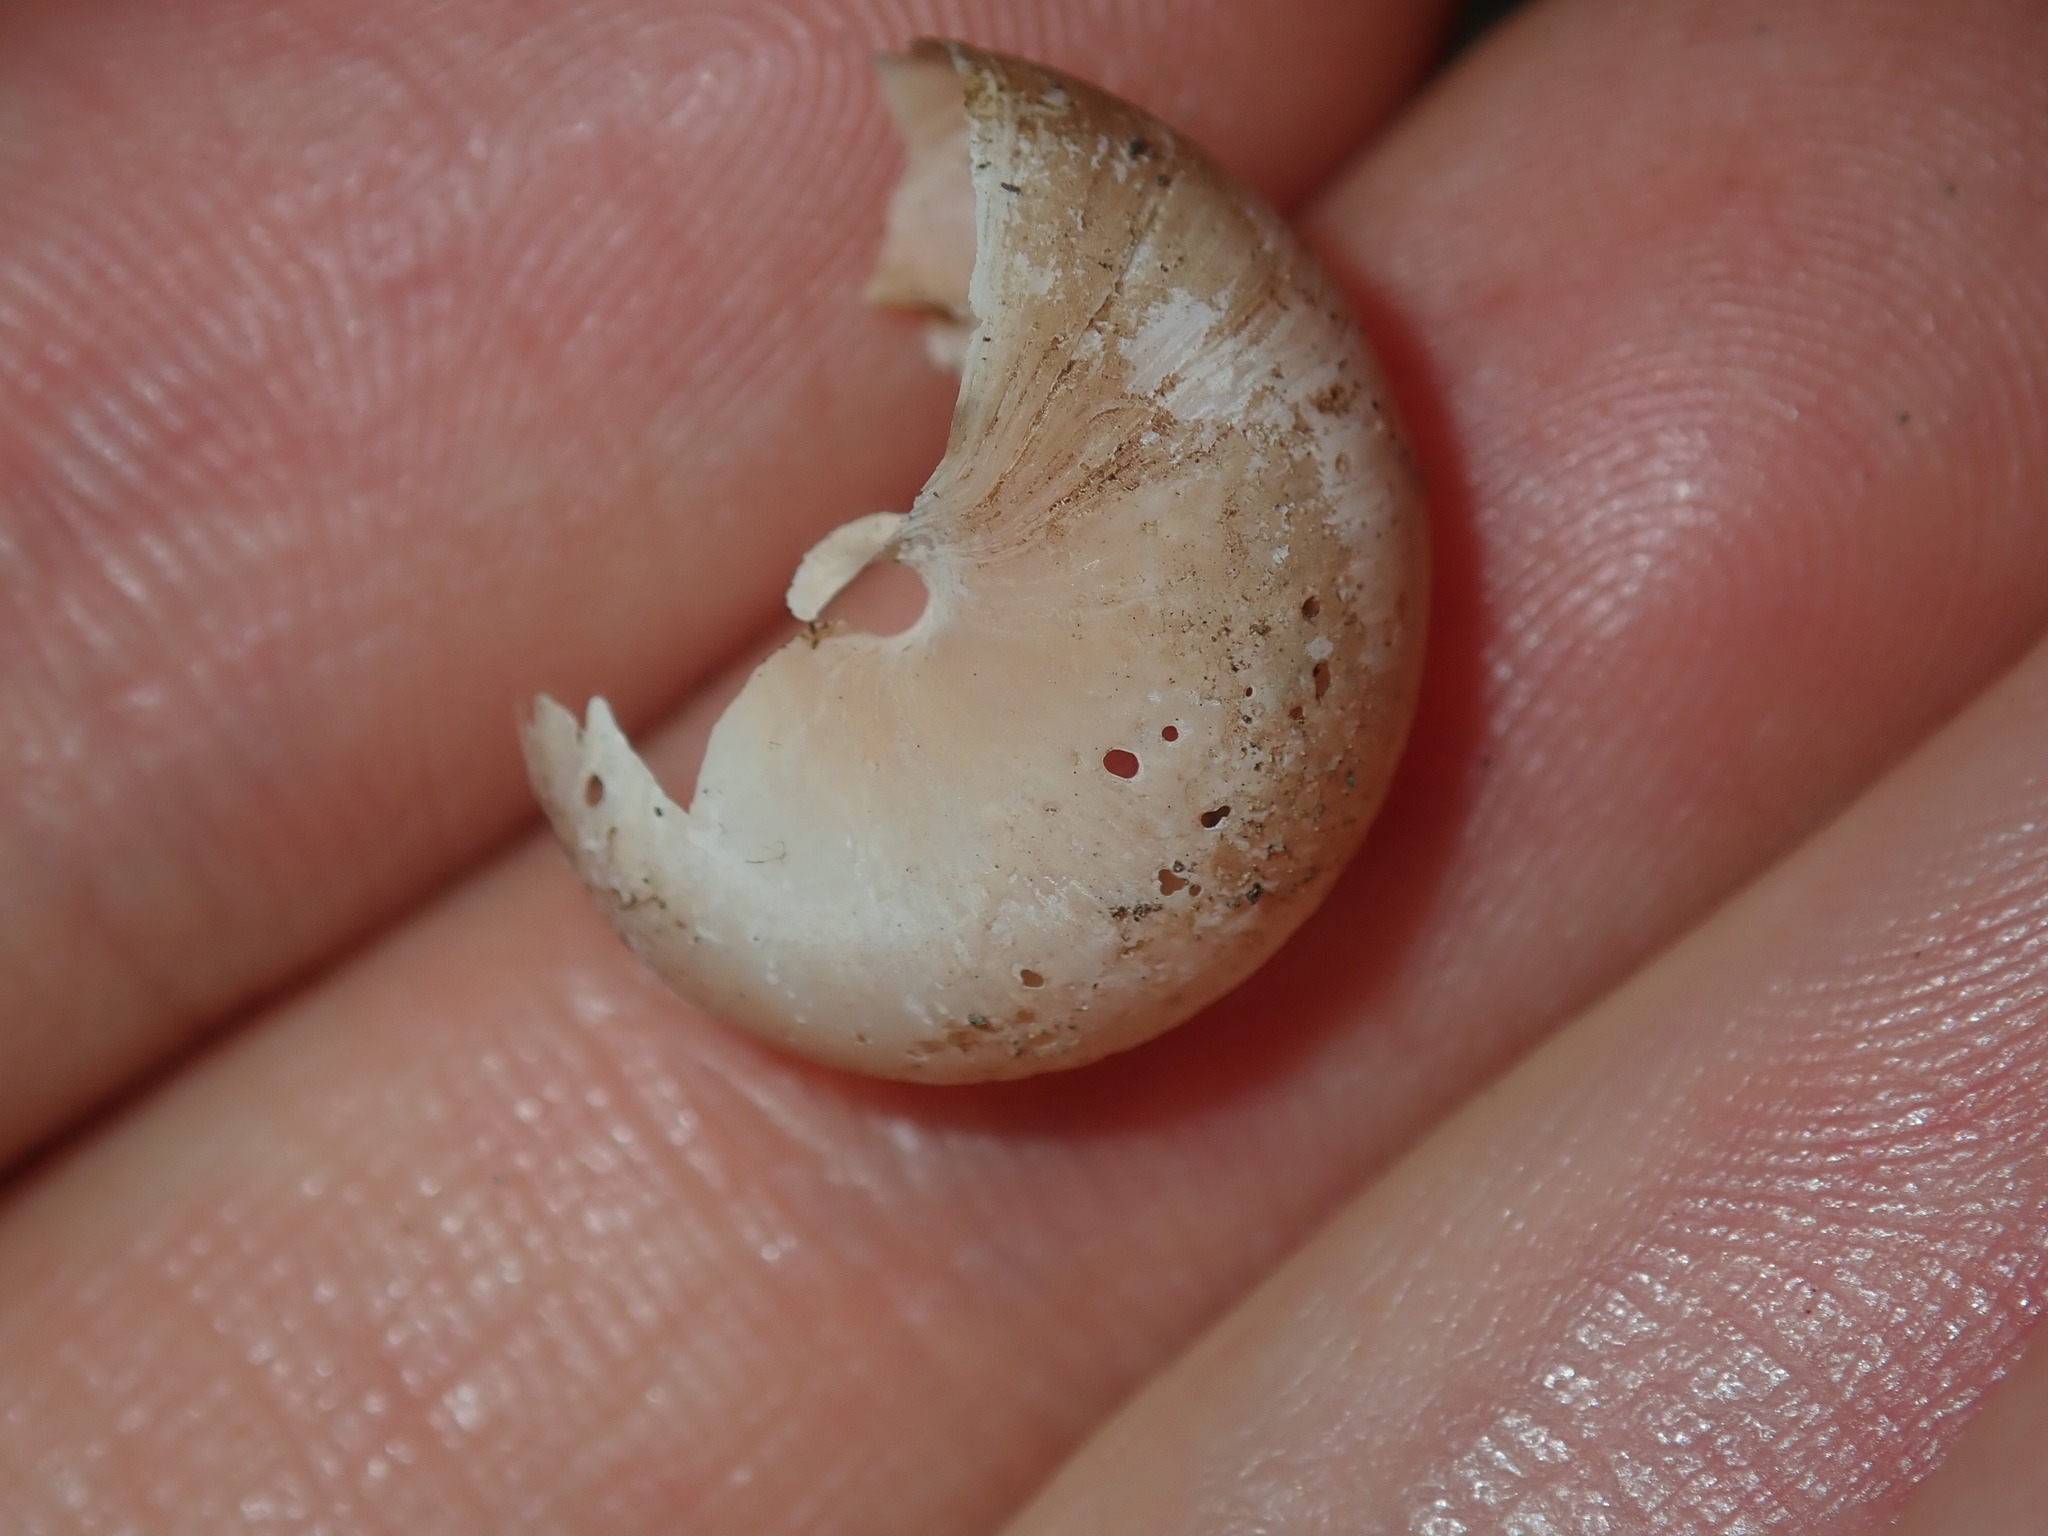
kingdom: Animalia
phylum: Mollusca
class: Gastropoda
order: Stylommatophora
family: Camaenidae
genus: Sauroconcha
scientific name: Sauroconcha sheai
